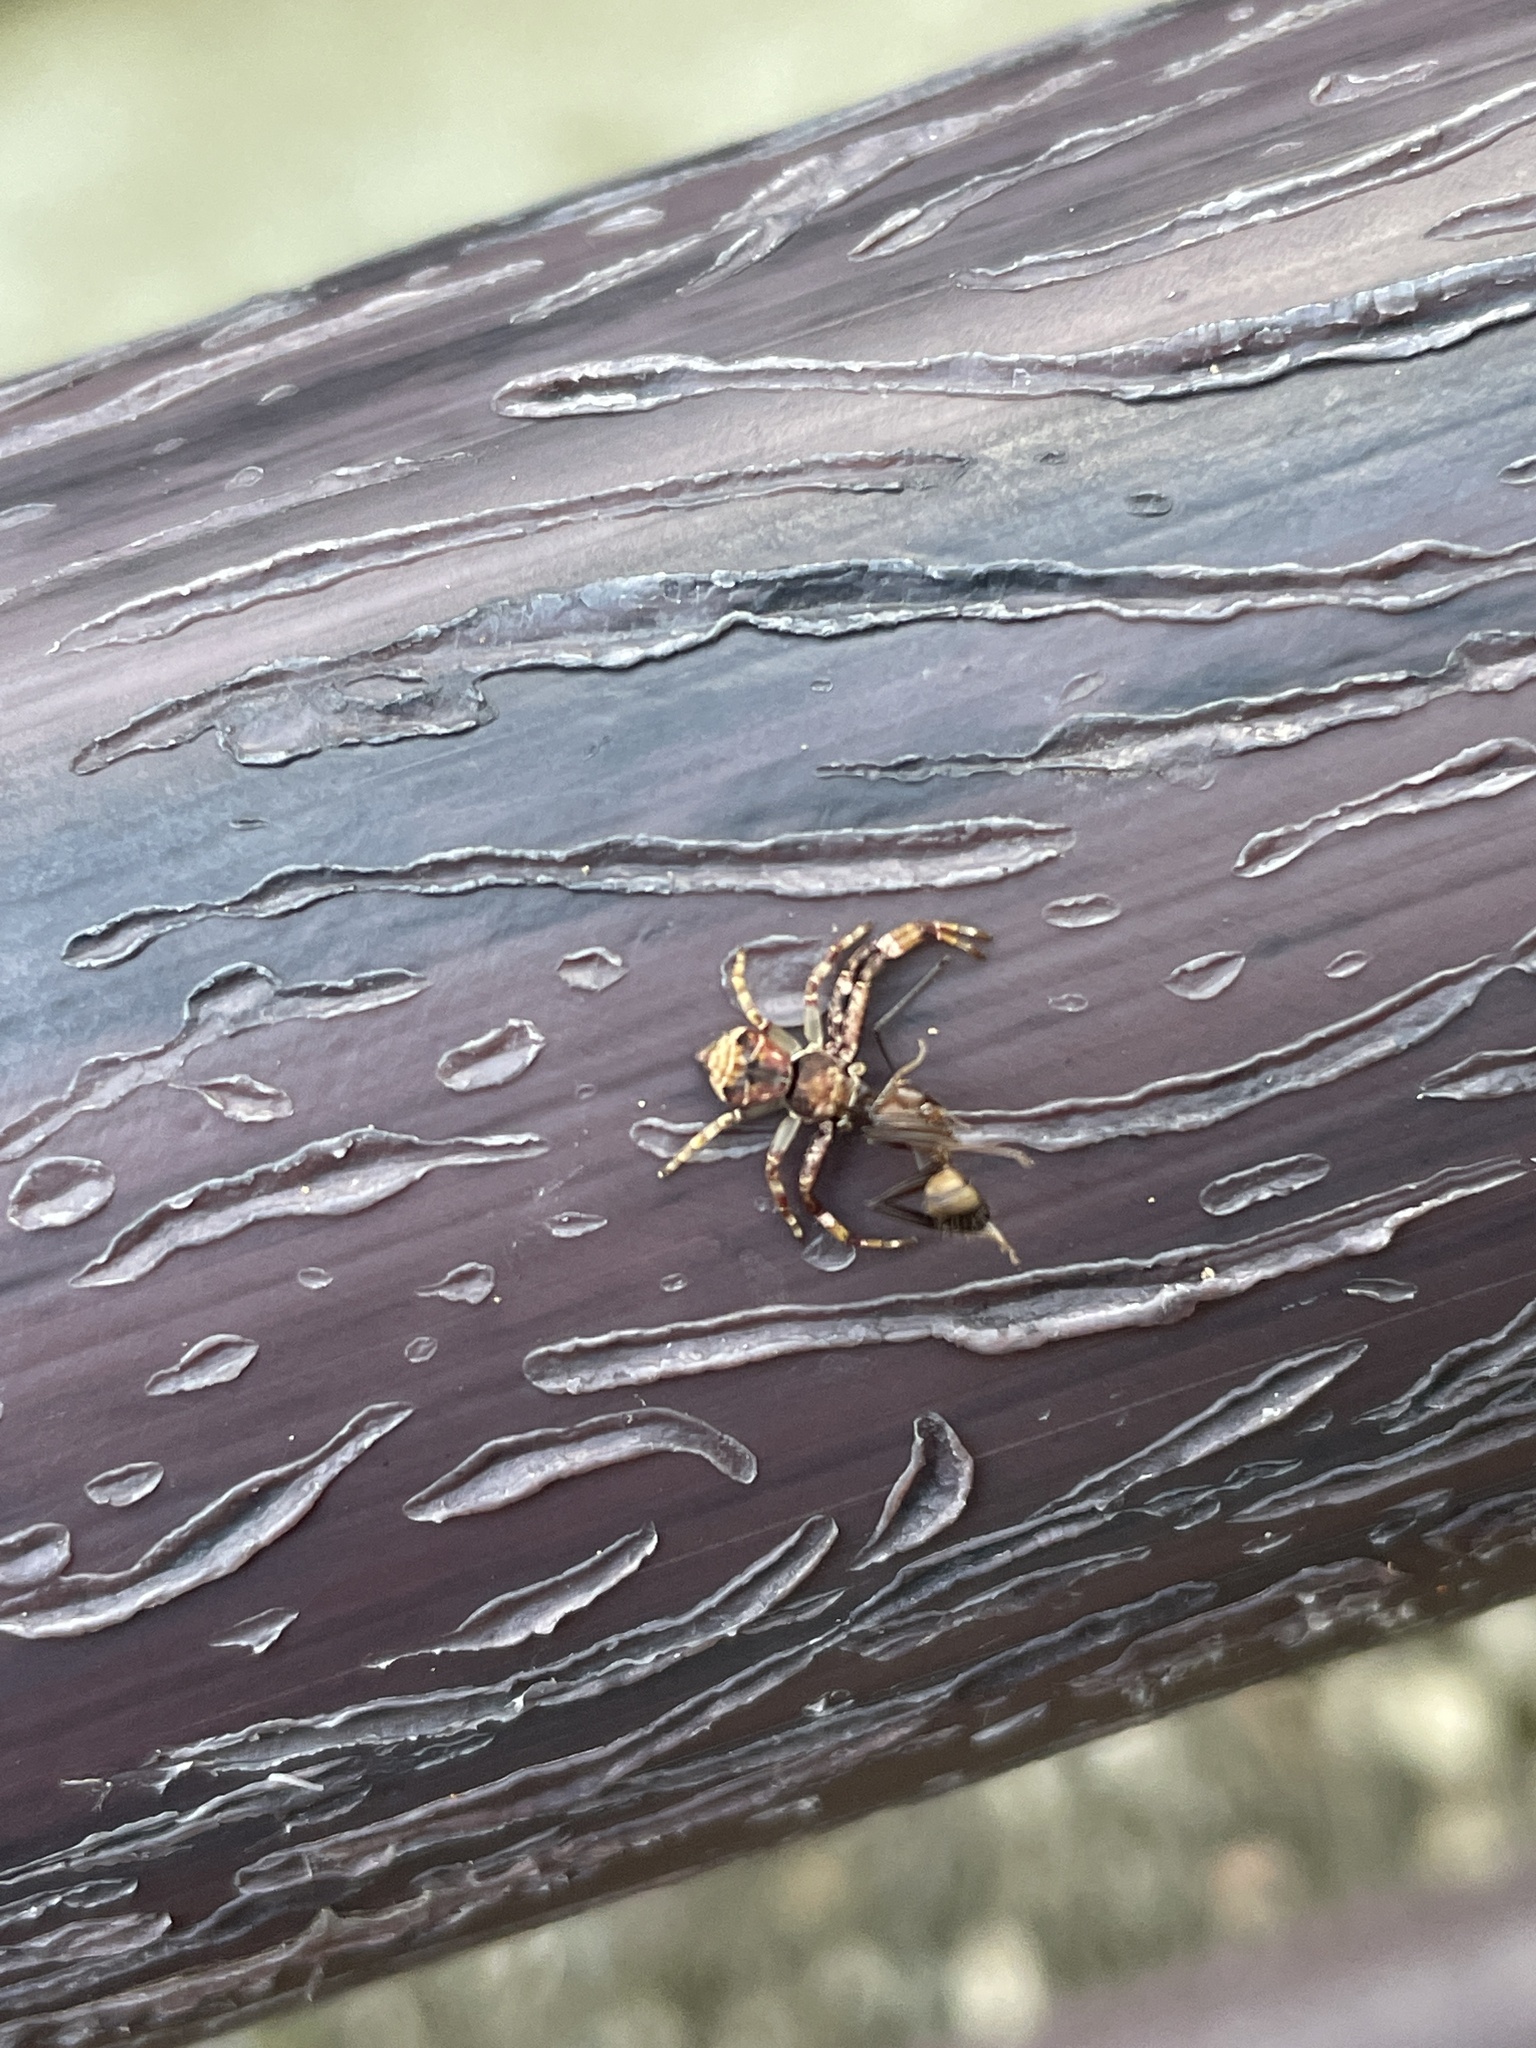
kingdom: Animalia
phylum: Arthropoda
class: Arachnida
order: Araneae
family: Thomisidae
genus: Strigoplus
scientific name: Strigoplus guizhouensis
